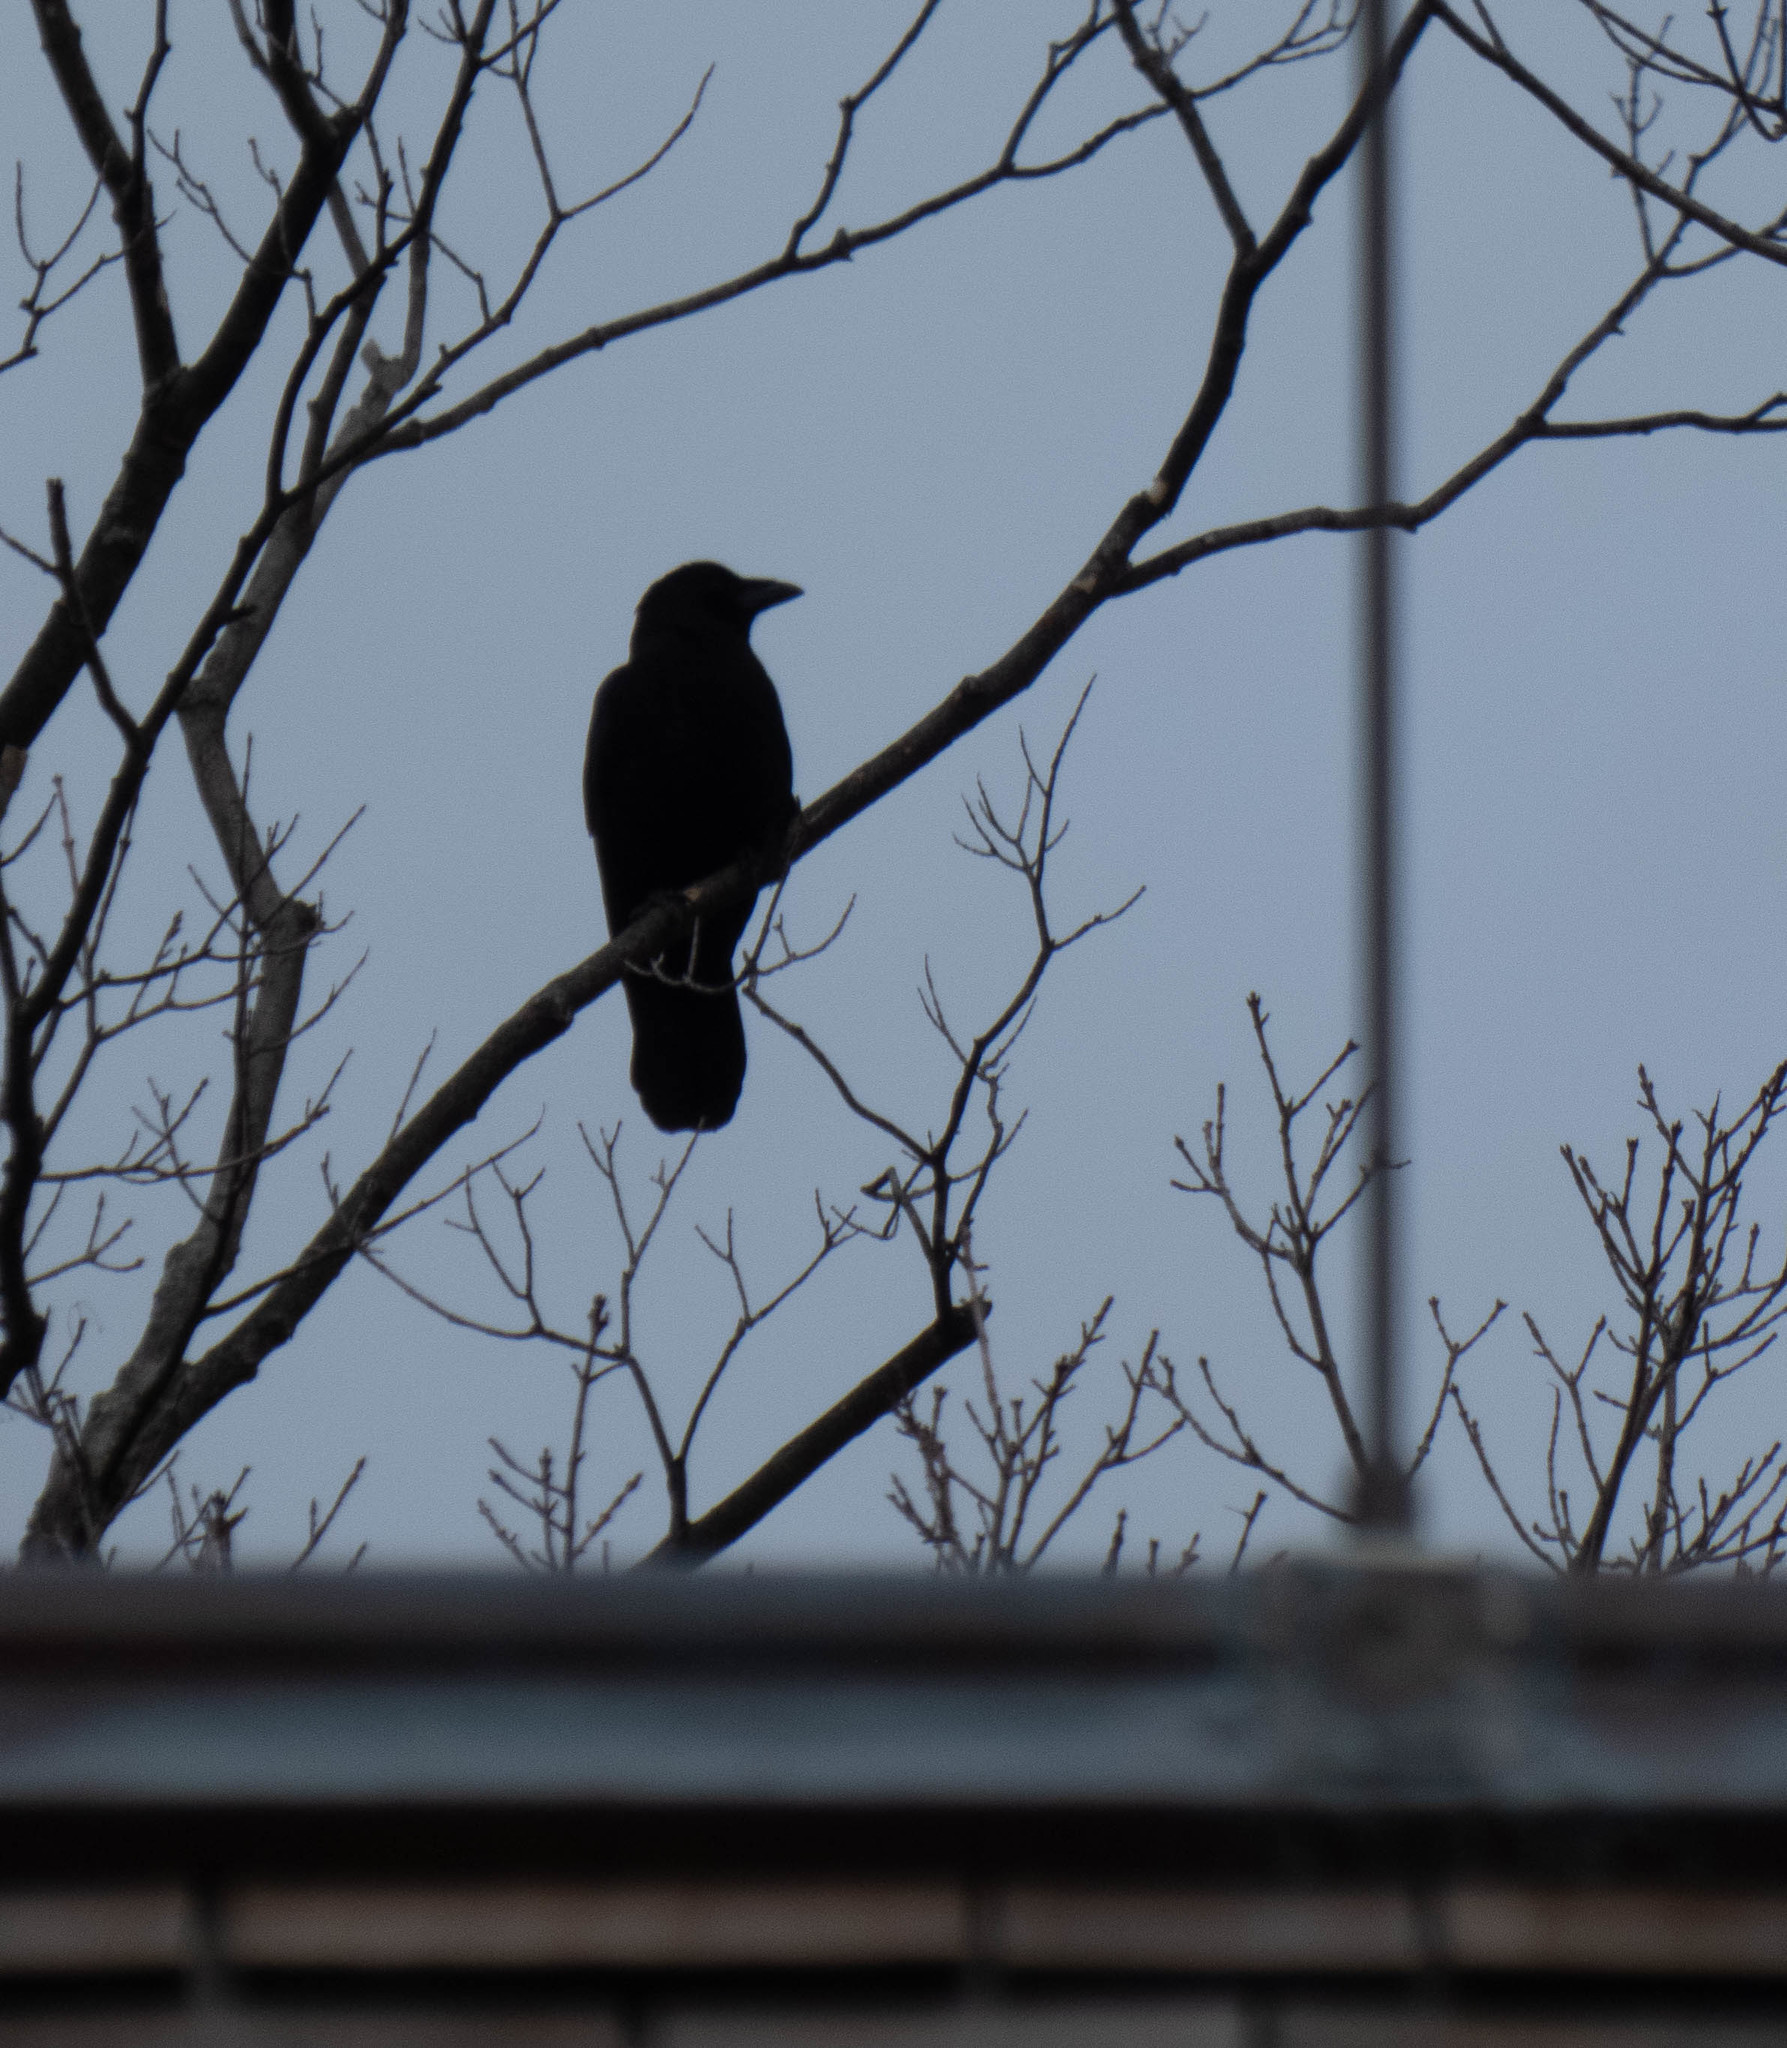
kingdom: Animalia
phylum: Chordata
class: Aves
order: Passeriformes
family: Corvidae
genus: Corvus
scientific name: Corvus brachyrhynchos
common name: American crow
